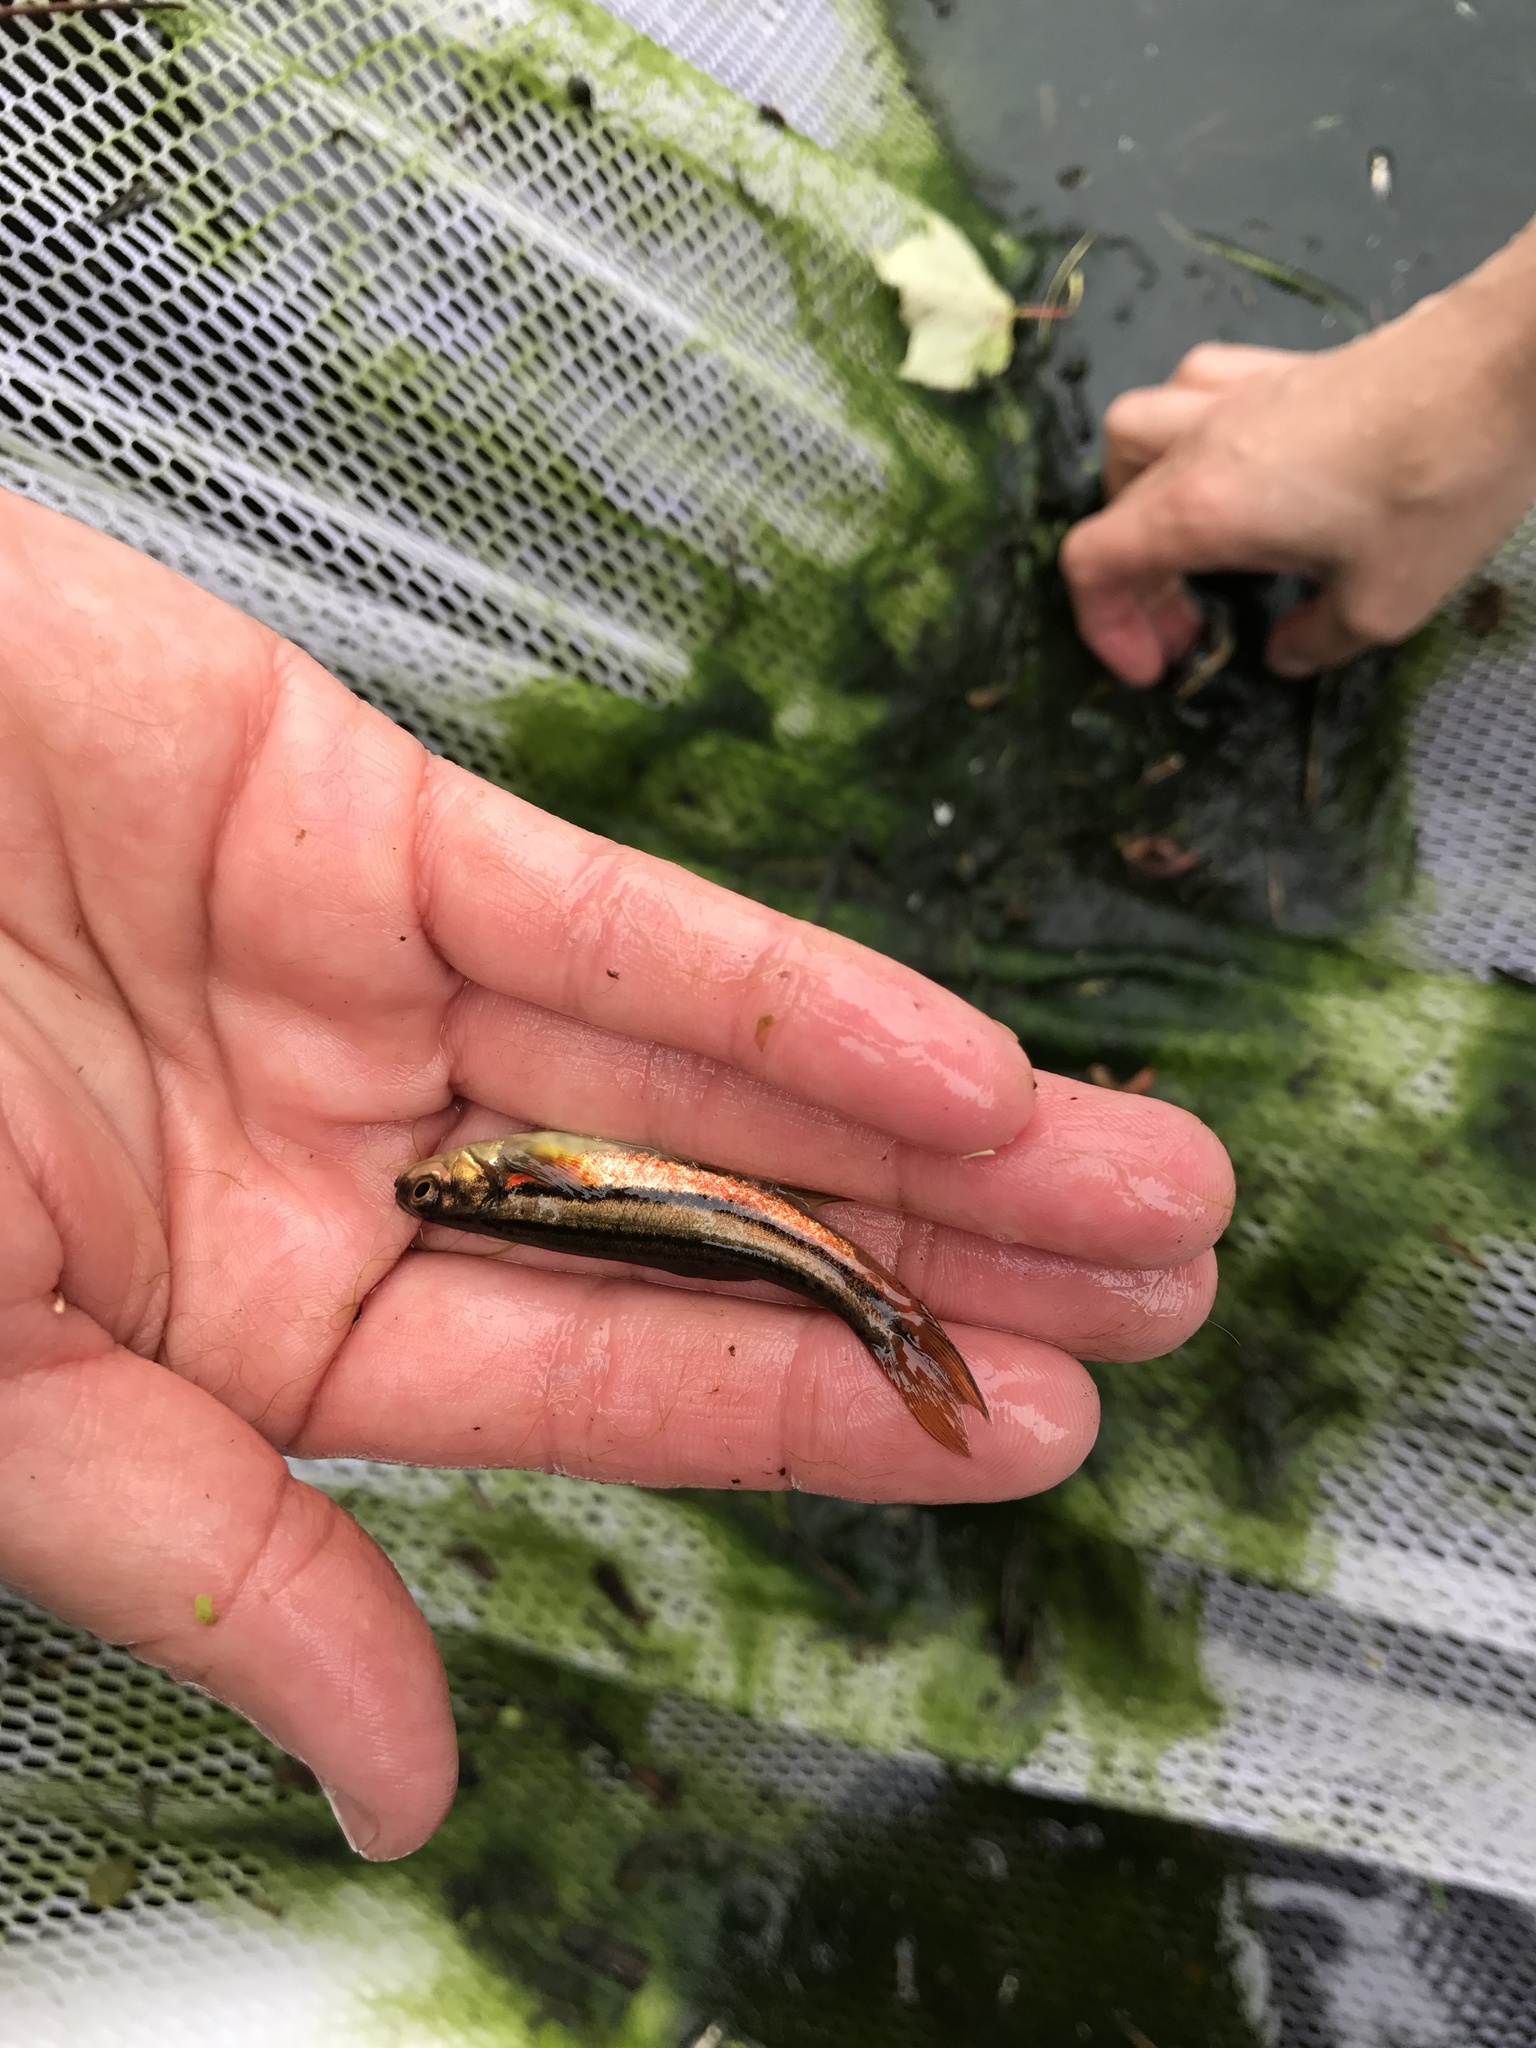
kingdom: Animalia
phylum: Chordata
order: Cypriniformes
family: Cyprinidae
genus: Chrosomus
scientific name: Chrosomus eos
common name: Northern redbelly dace
